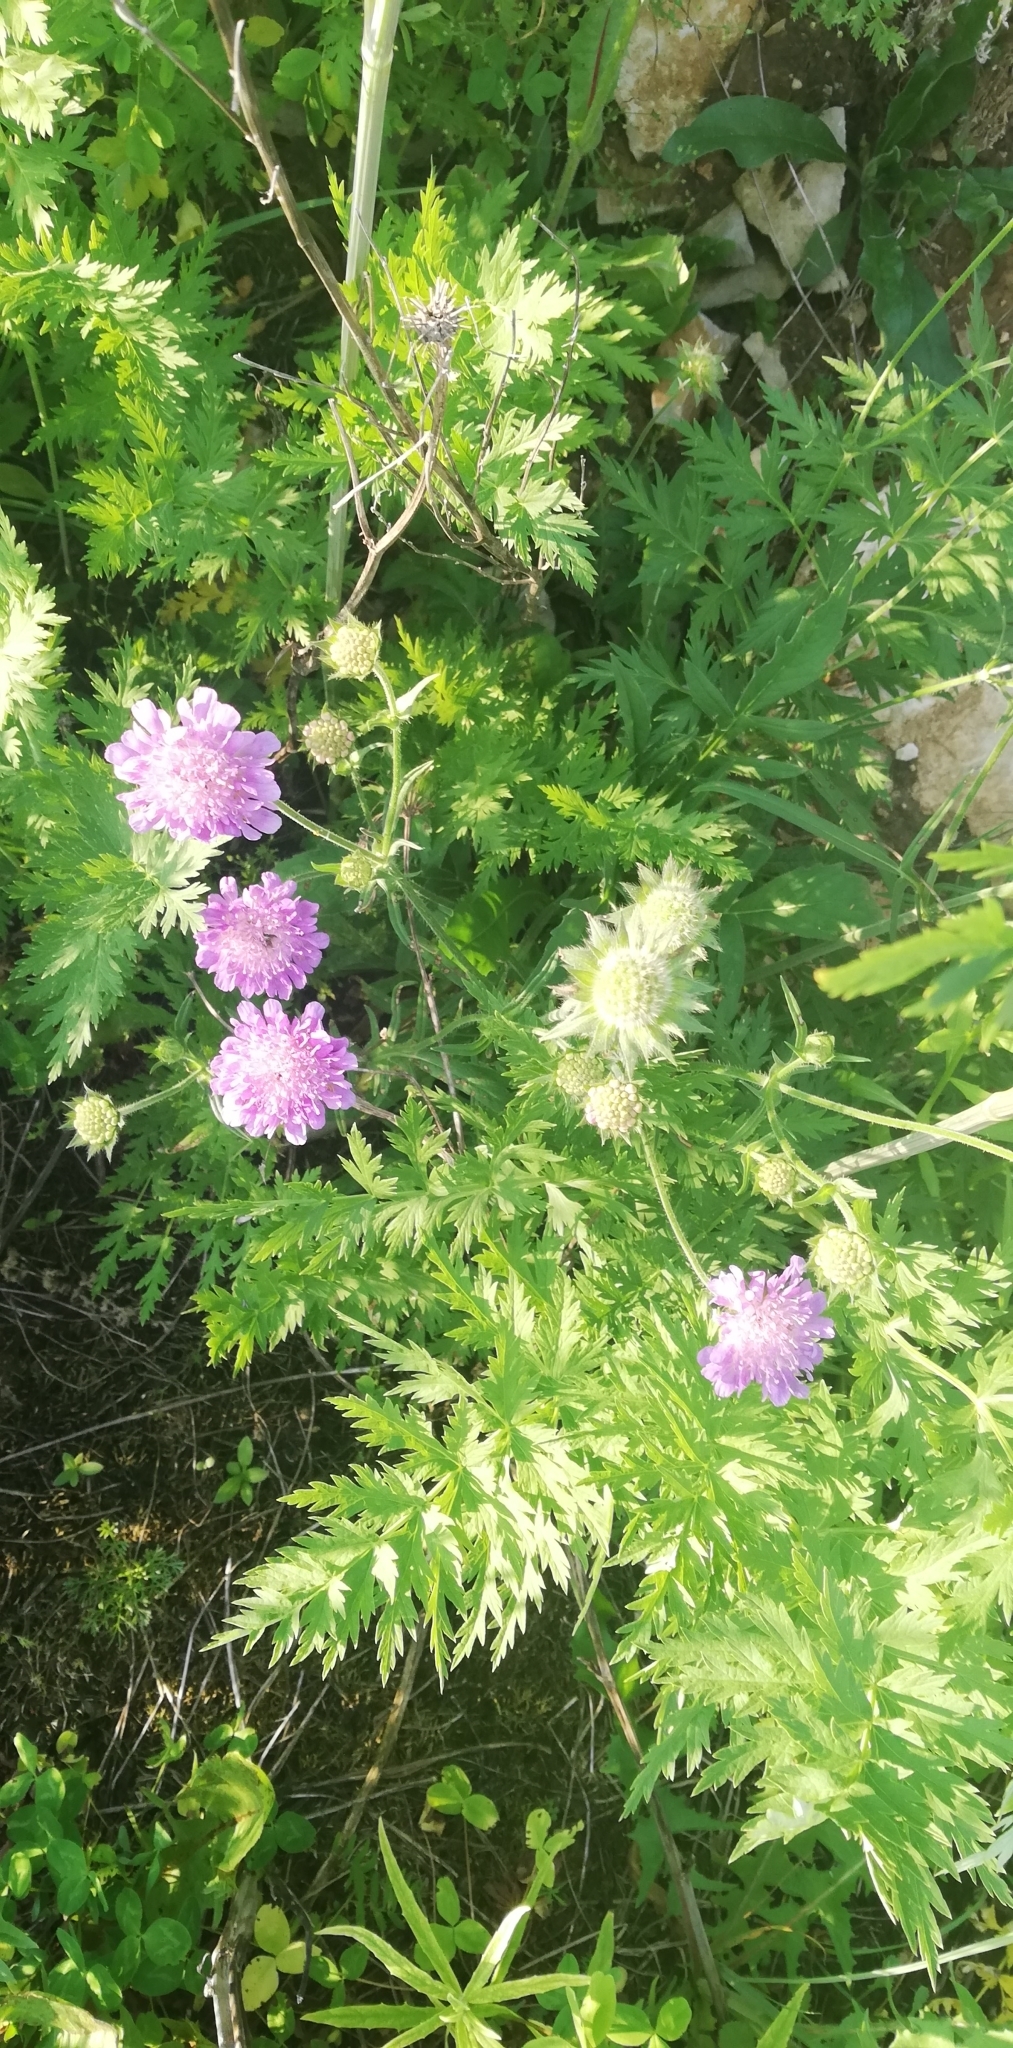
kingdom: Plantae
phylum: Tracheophyta
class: Magnoliopsida
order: Dipsacales
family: Caprifoliaceae
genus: Knautia
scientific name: Knautia arvensis
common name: Field scabiosa
